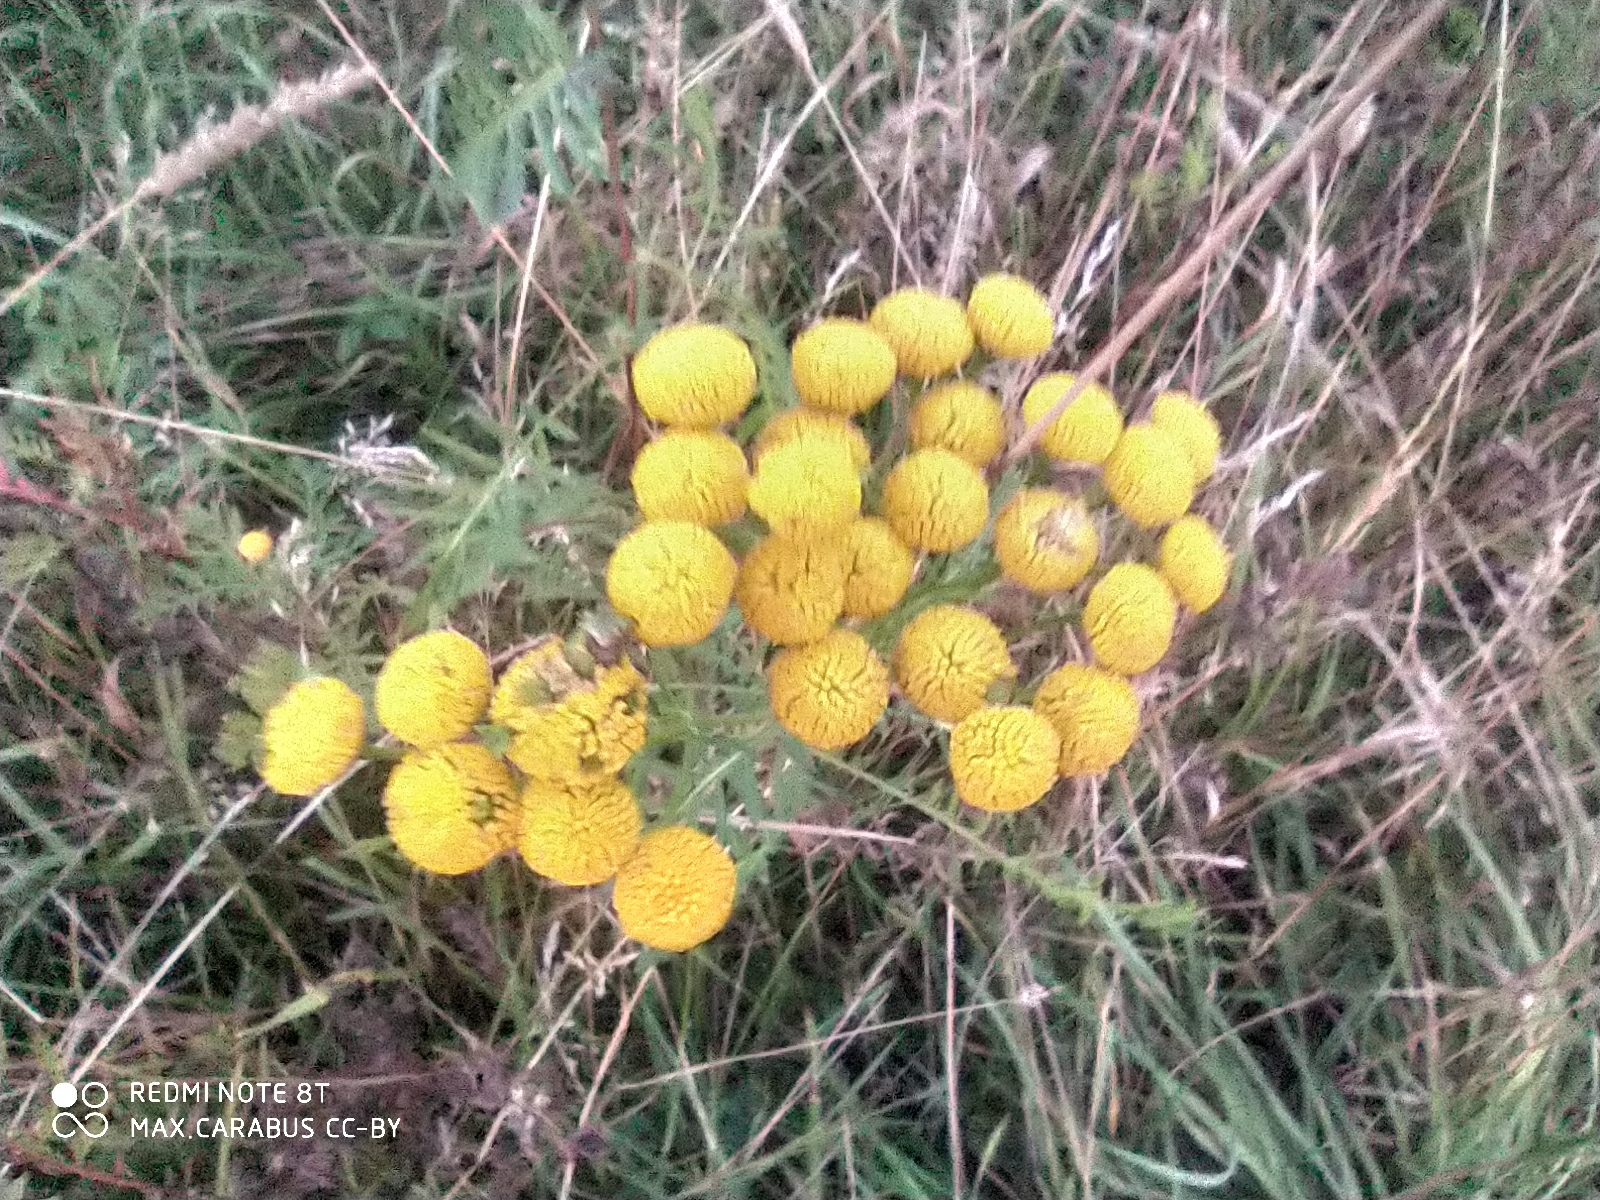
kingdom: Plantae
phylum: Tracheophyta
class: Magnoliopsida
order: Asterales
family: Asteraceae
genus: Tanacetum
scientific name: Tanacetum vulgare
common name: Common tansy
